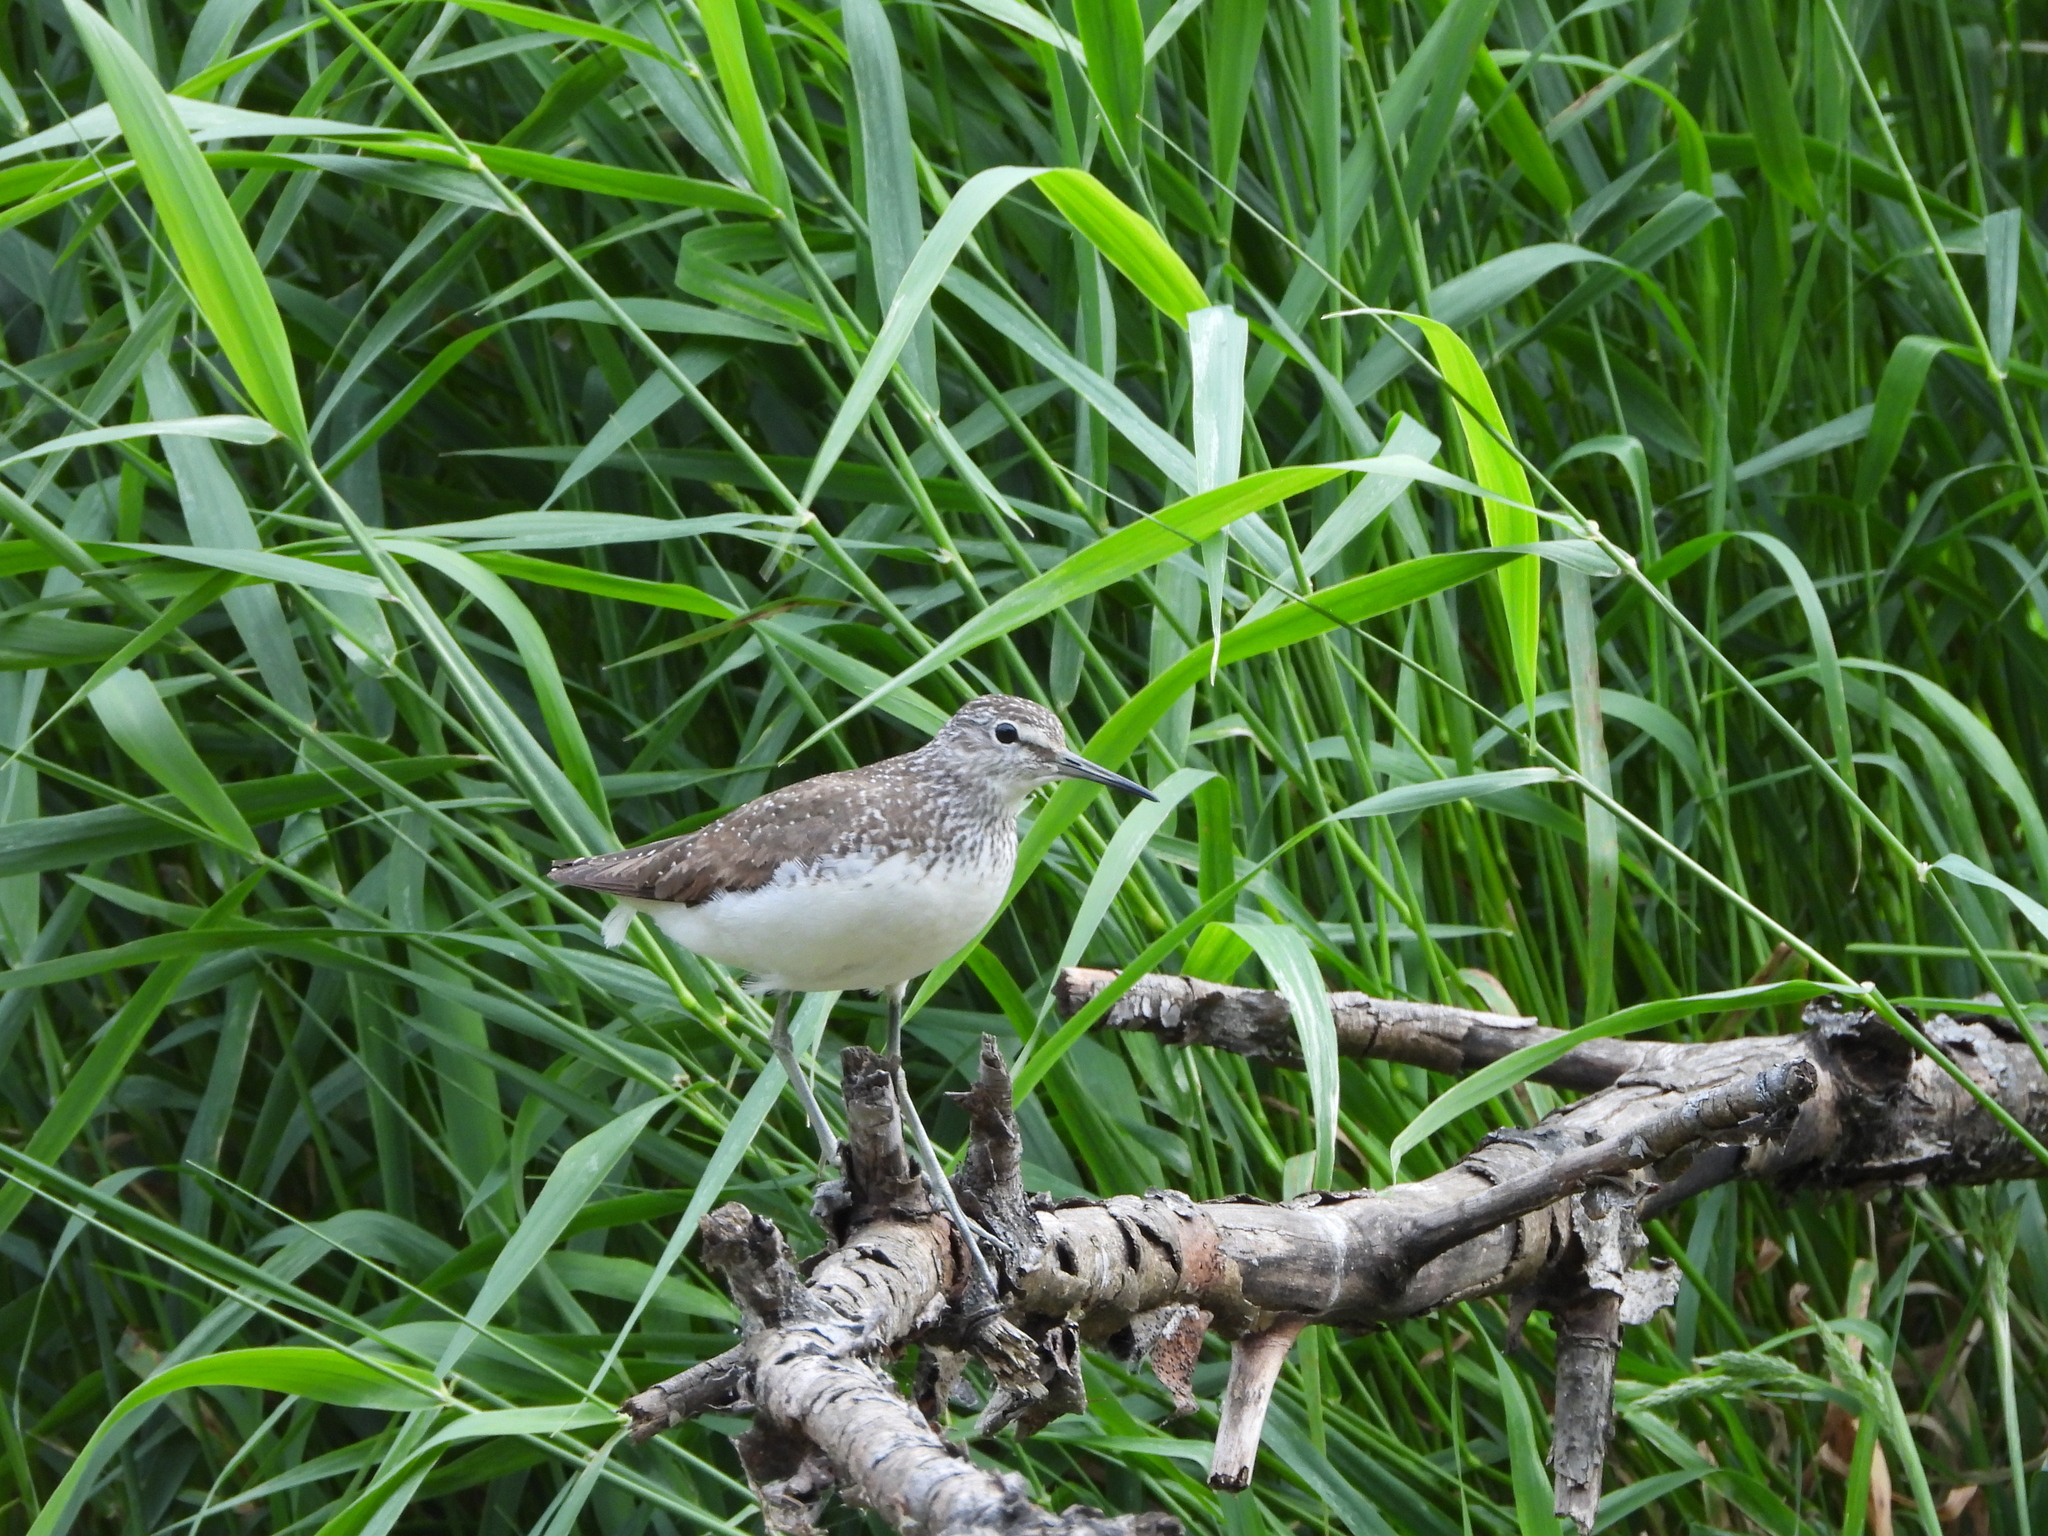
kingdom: Animalia
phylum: Chordata
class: Aves
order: Charadriiformes
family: Scolopacidae
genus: Tringa
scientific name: Tringa ochropus
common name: Green sandpiper
